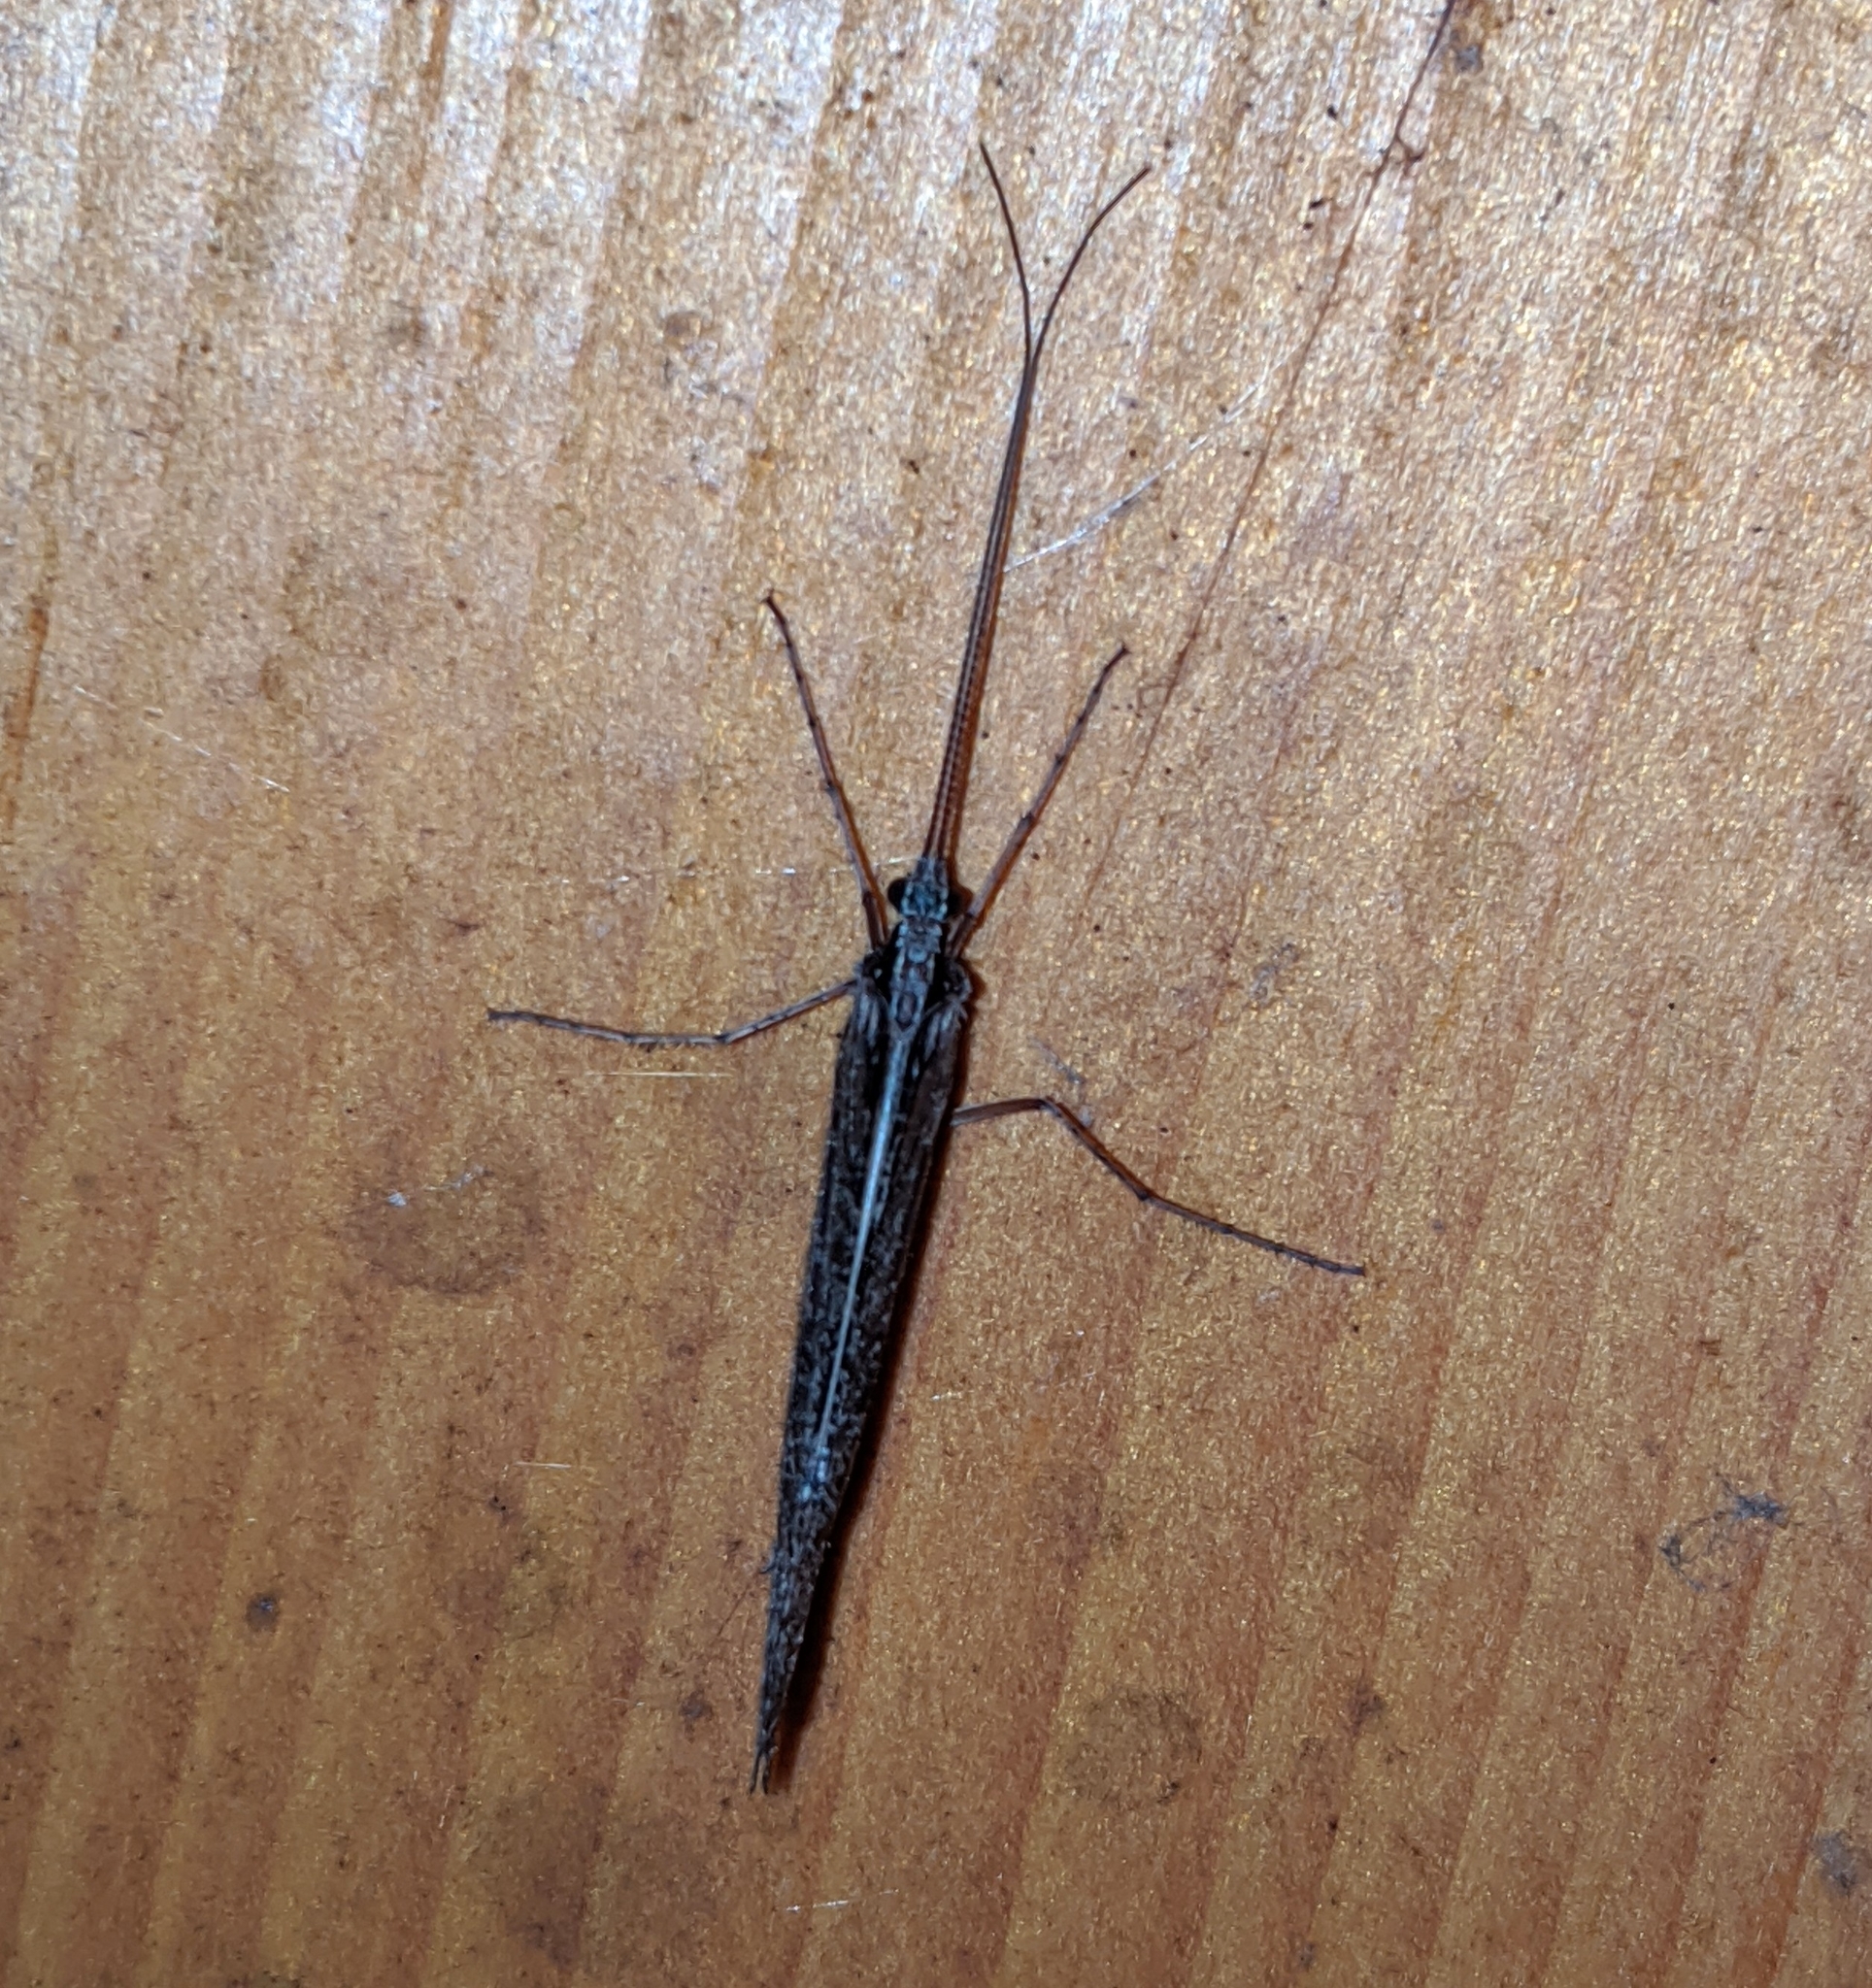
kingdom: Animalia
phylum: Arthropoda
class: Insecta
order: Trichoptera
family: Limnephilidae
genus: Glyphopsyche
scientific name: Glyphopsyche irrorata
